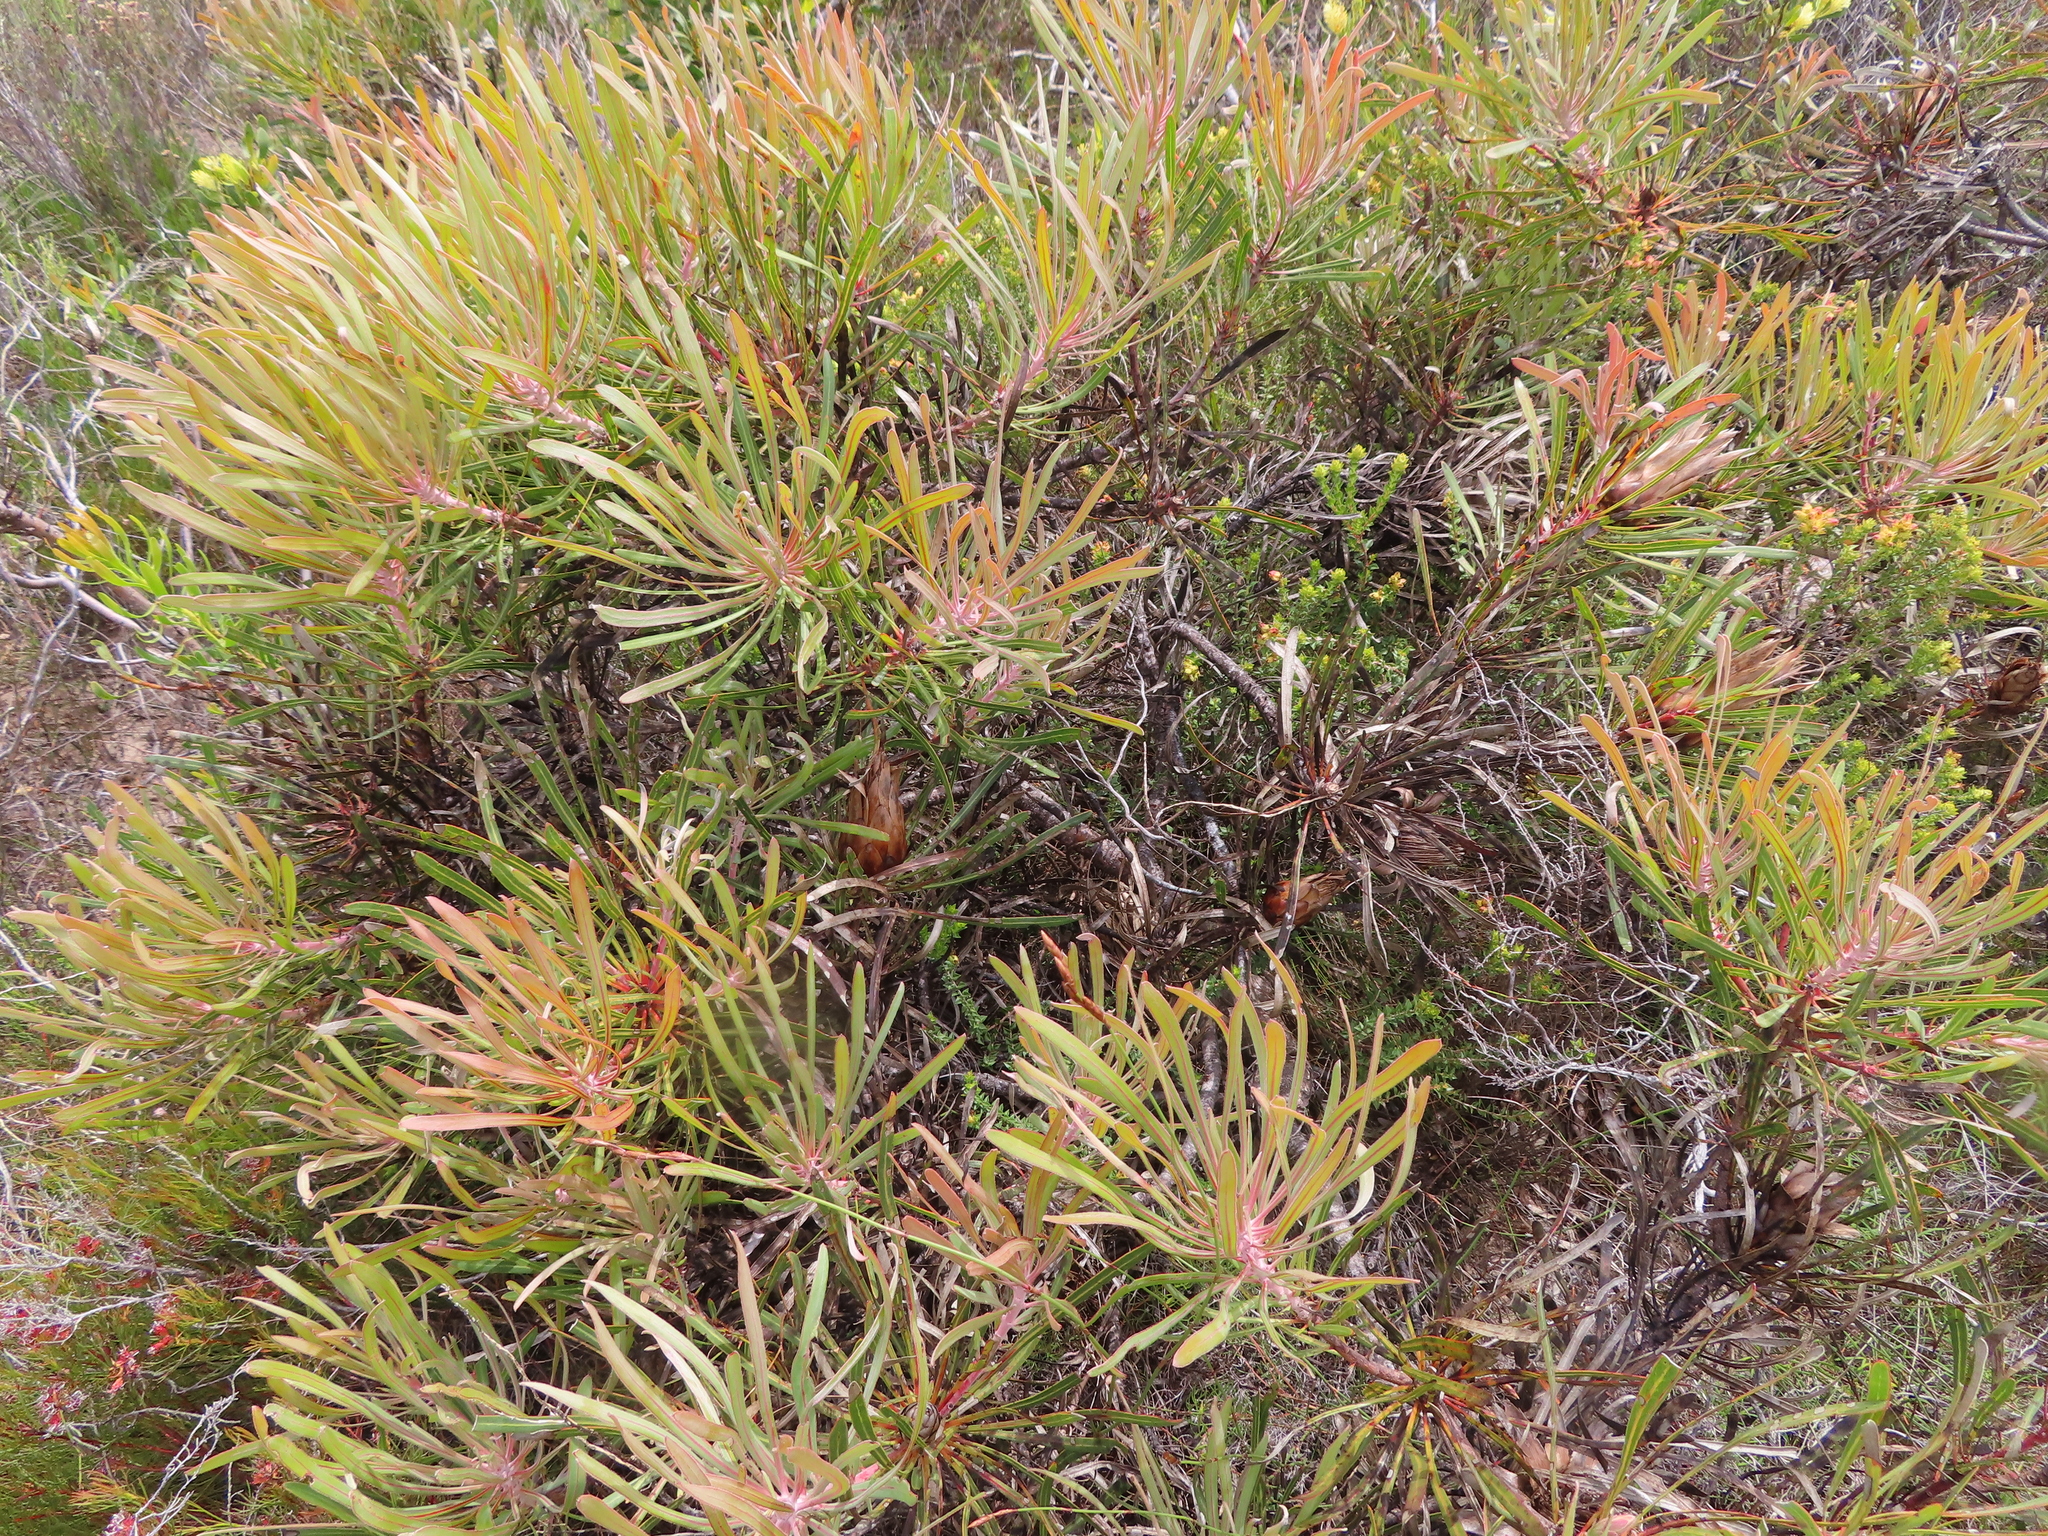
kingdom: Plantae
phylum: Tracheophyta
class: Magnoliopsida
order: Proteales
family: Proteaceae
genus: Protea
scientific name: Protea longifolia
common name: Long-leaf sugarbush
